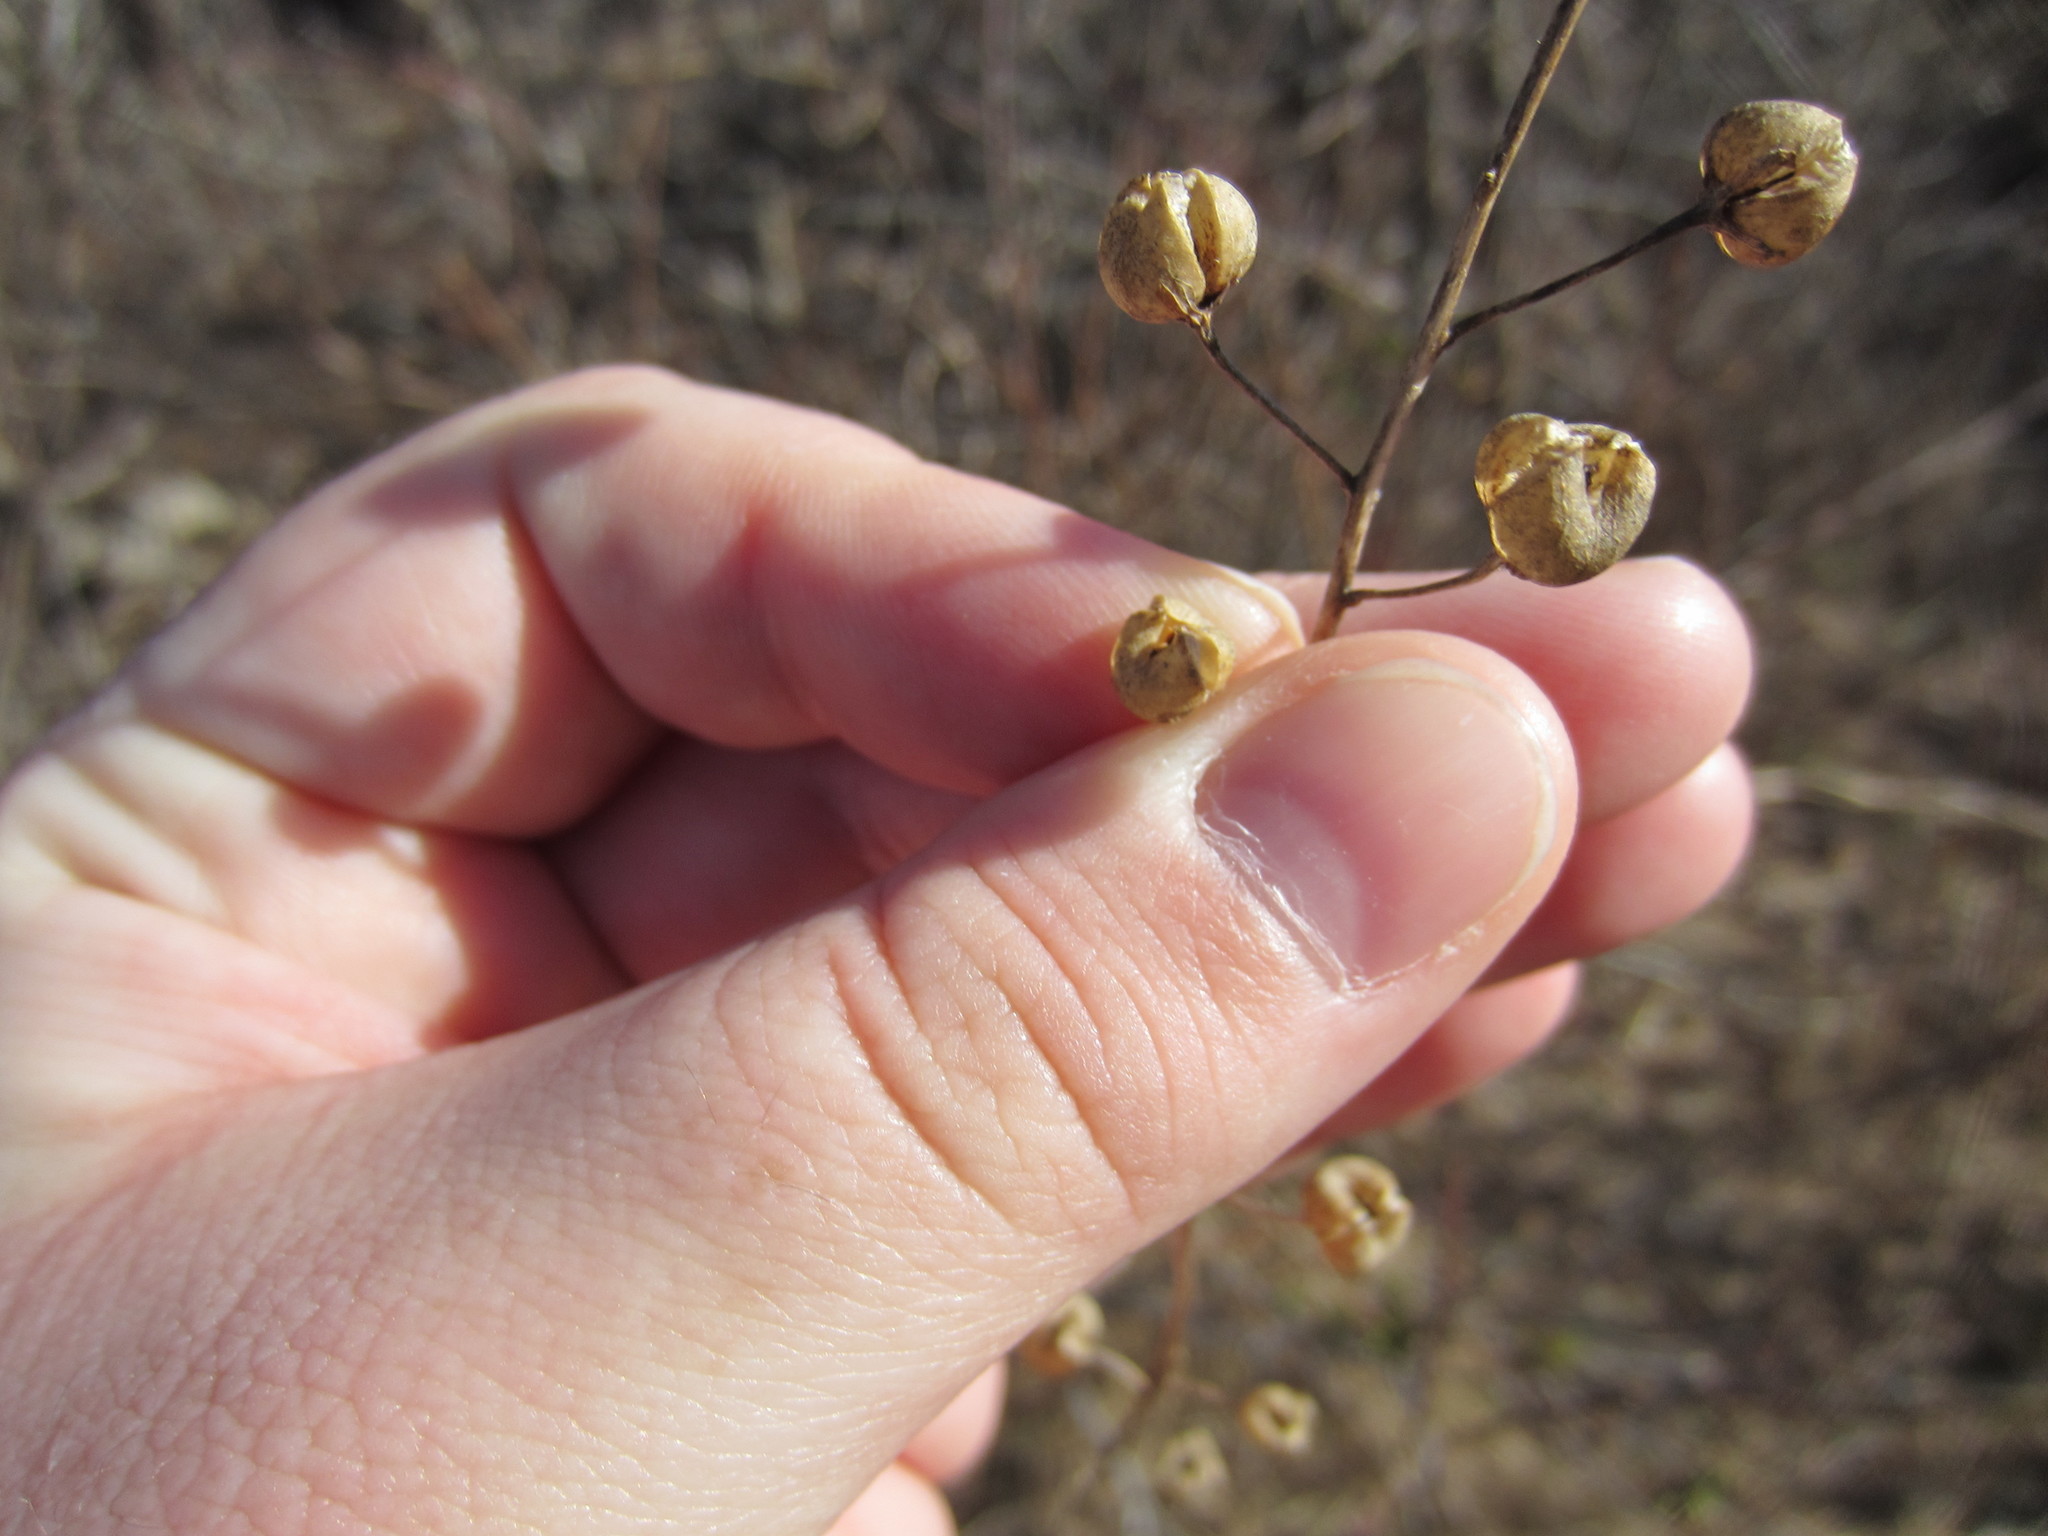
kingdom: Plantae
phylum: Tracheophyta
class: Magnoliopsida
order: Lamiales
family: Scrophulariaceae
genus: Verbascum
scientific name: Verbascum blattaria
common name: Moth mullein
